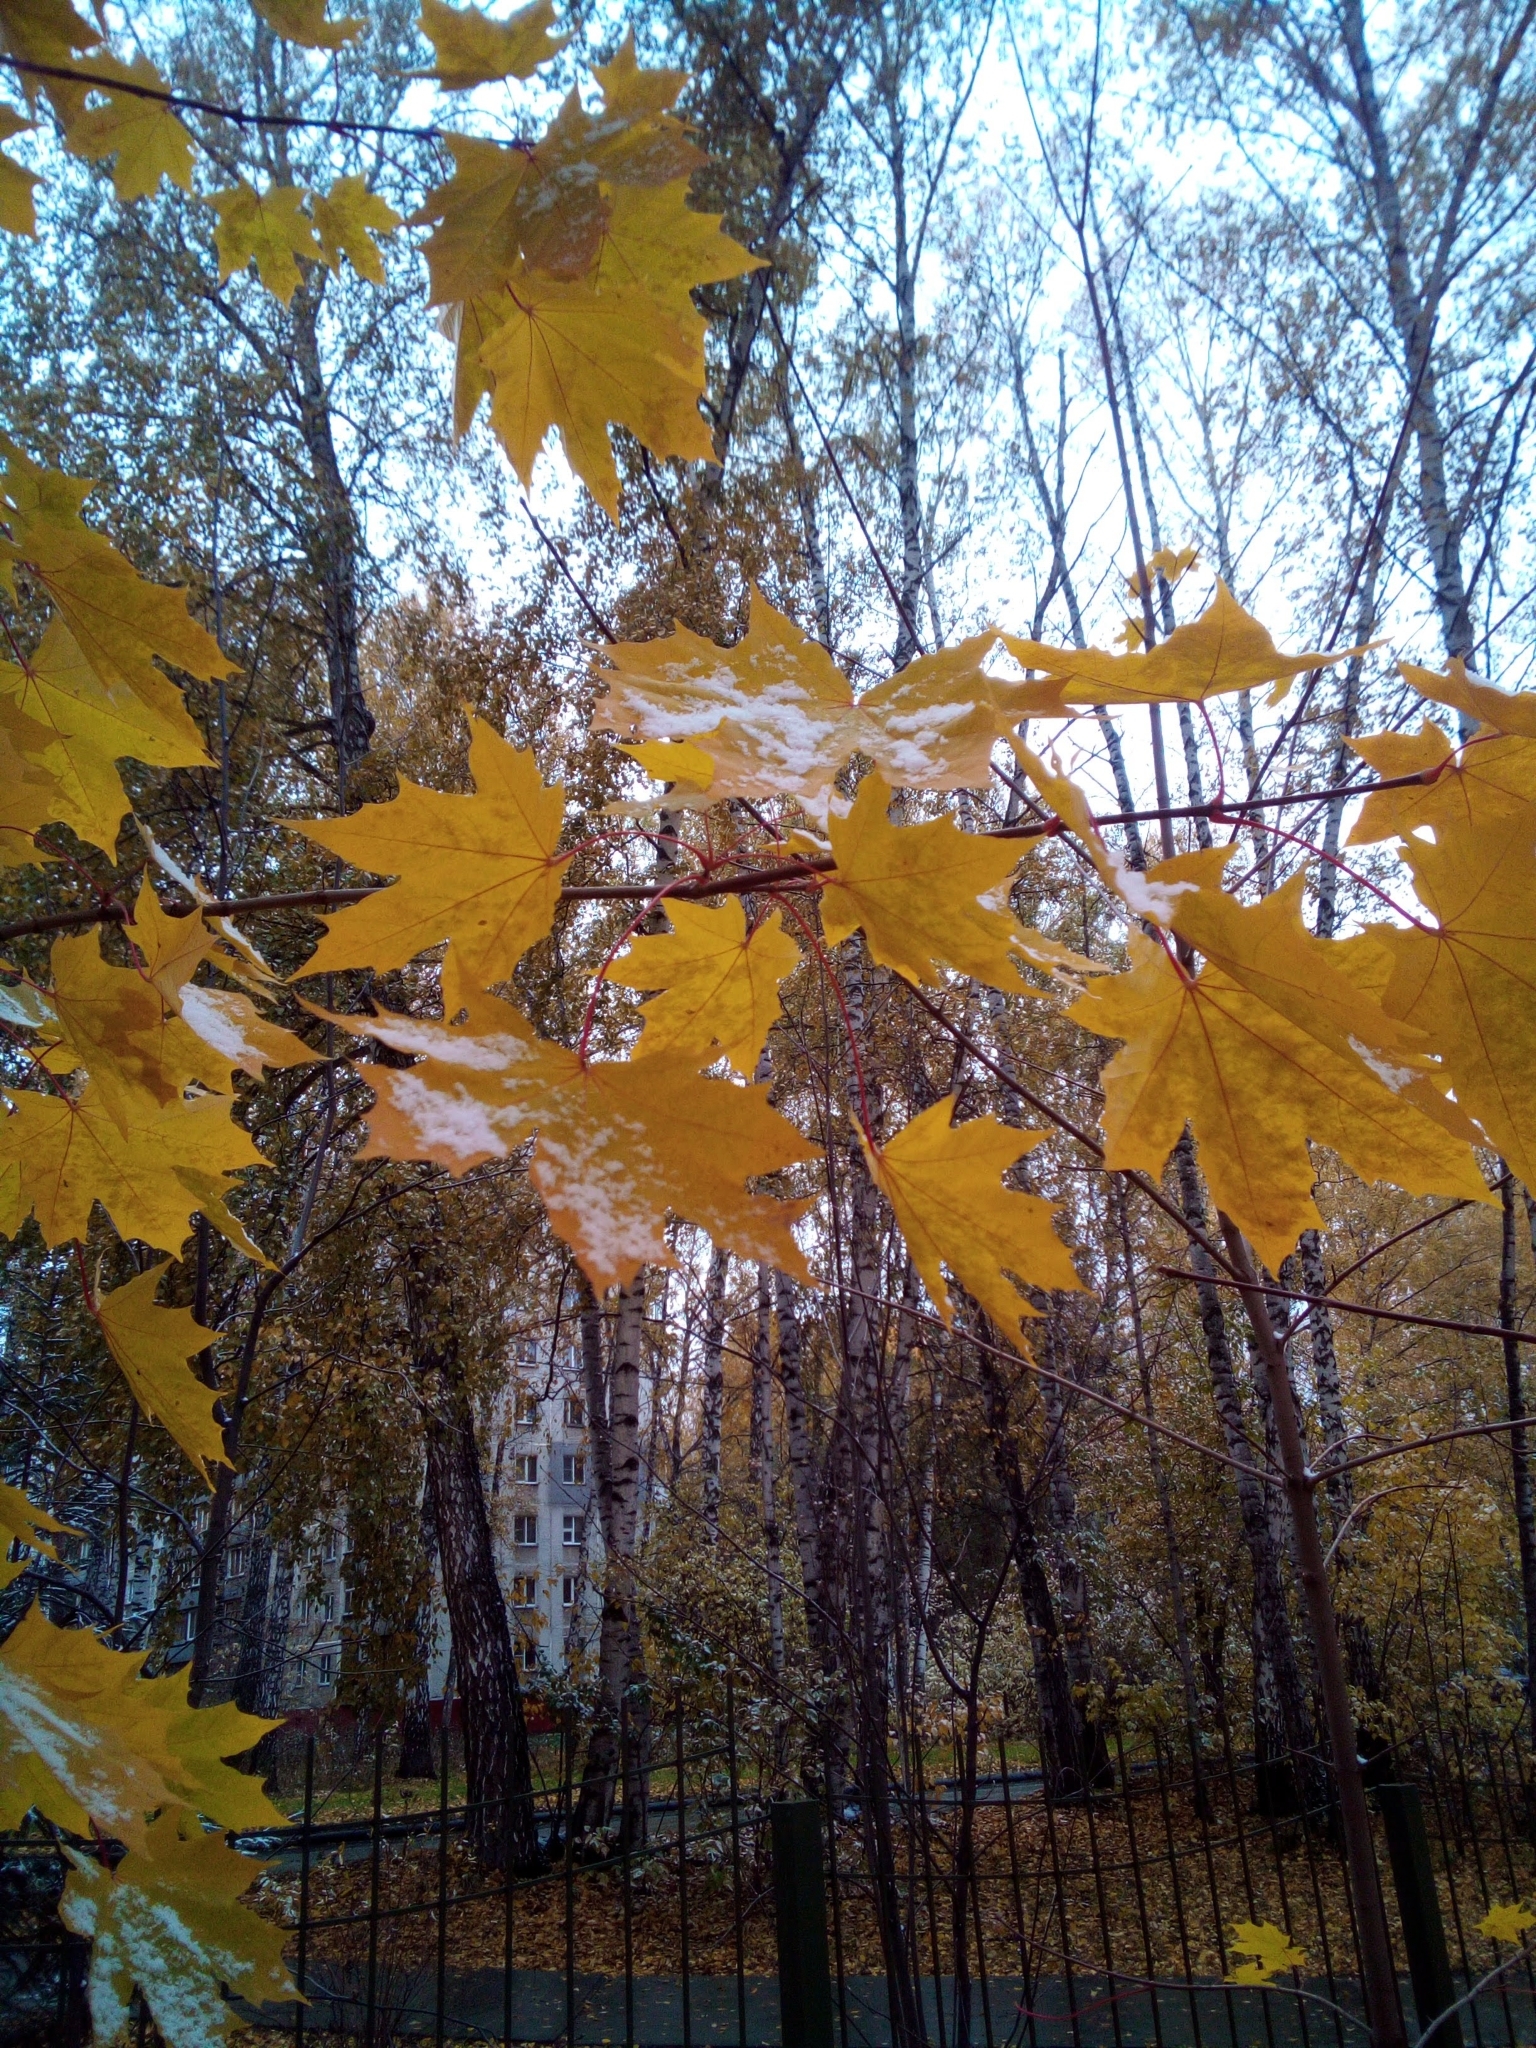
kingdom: Plantae
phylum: Tracheophyta
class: Magnoliopsida
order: Sapindales
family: Sapindaceae
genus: Acer
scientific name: Acer platanoides
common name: Norway maple
